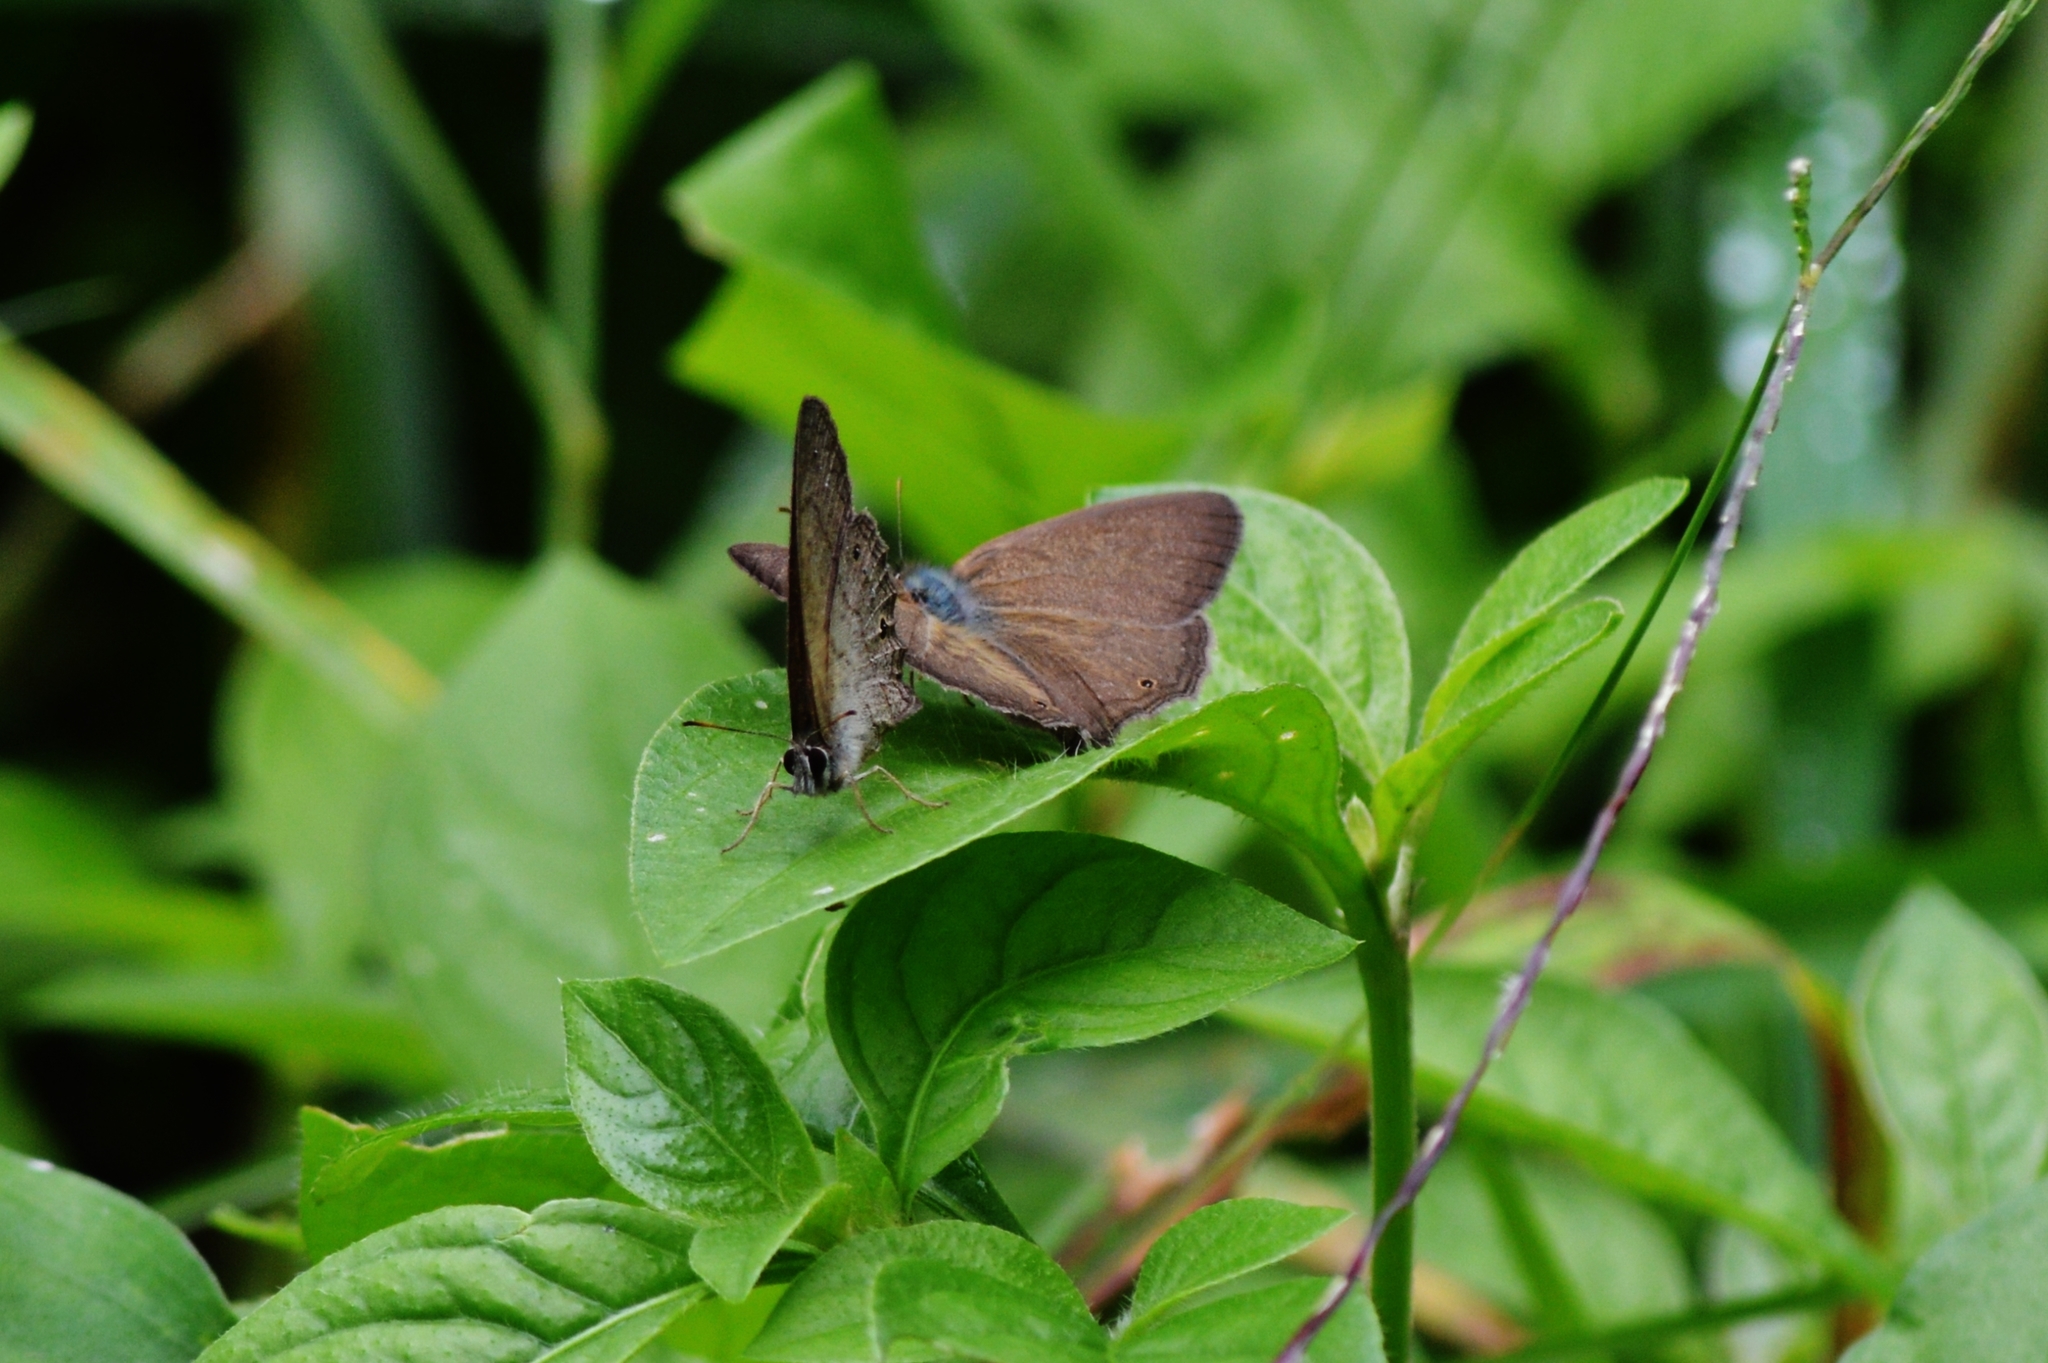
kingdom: Animalia
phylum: Arthropoda
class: Insecta
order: Lepidoptera
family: Nymphalidae
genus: Euptychiina
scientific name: Euptychiina
